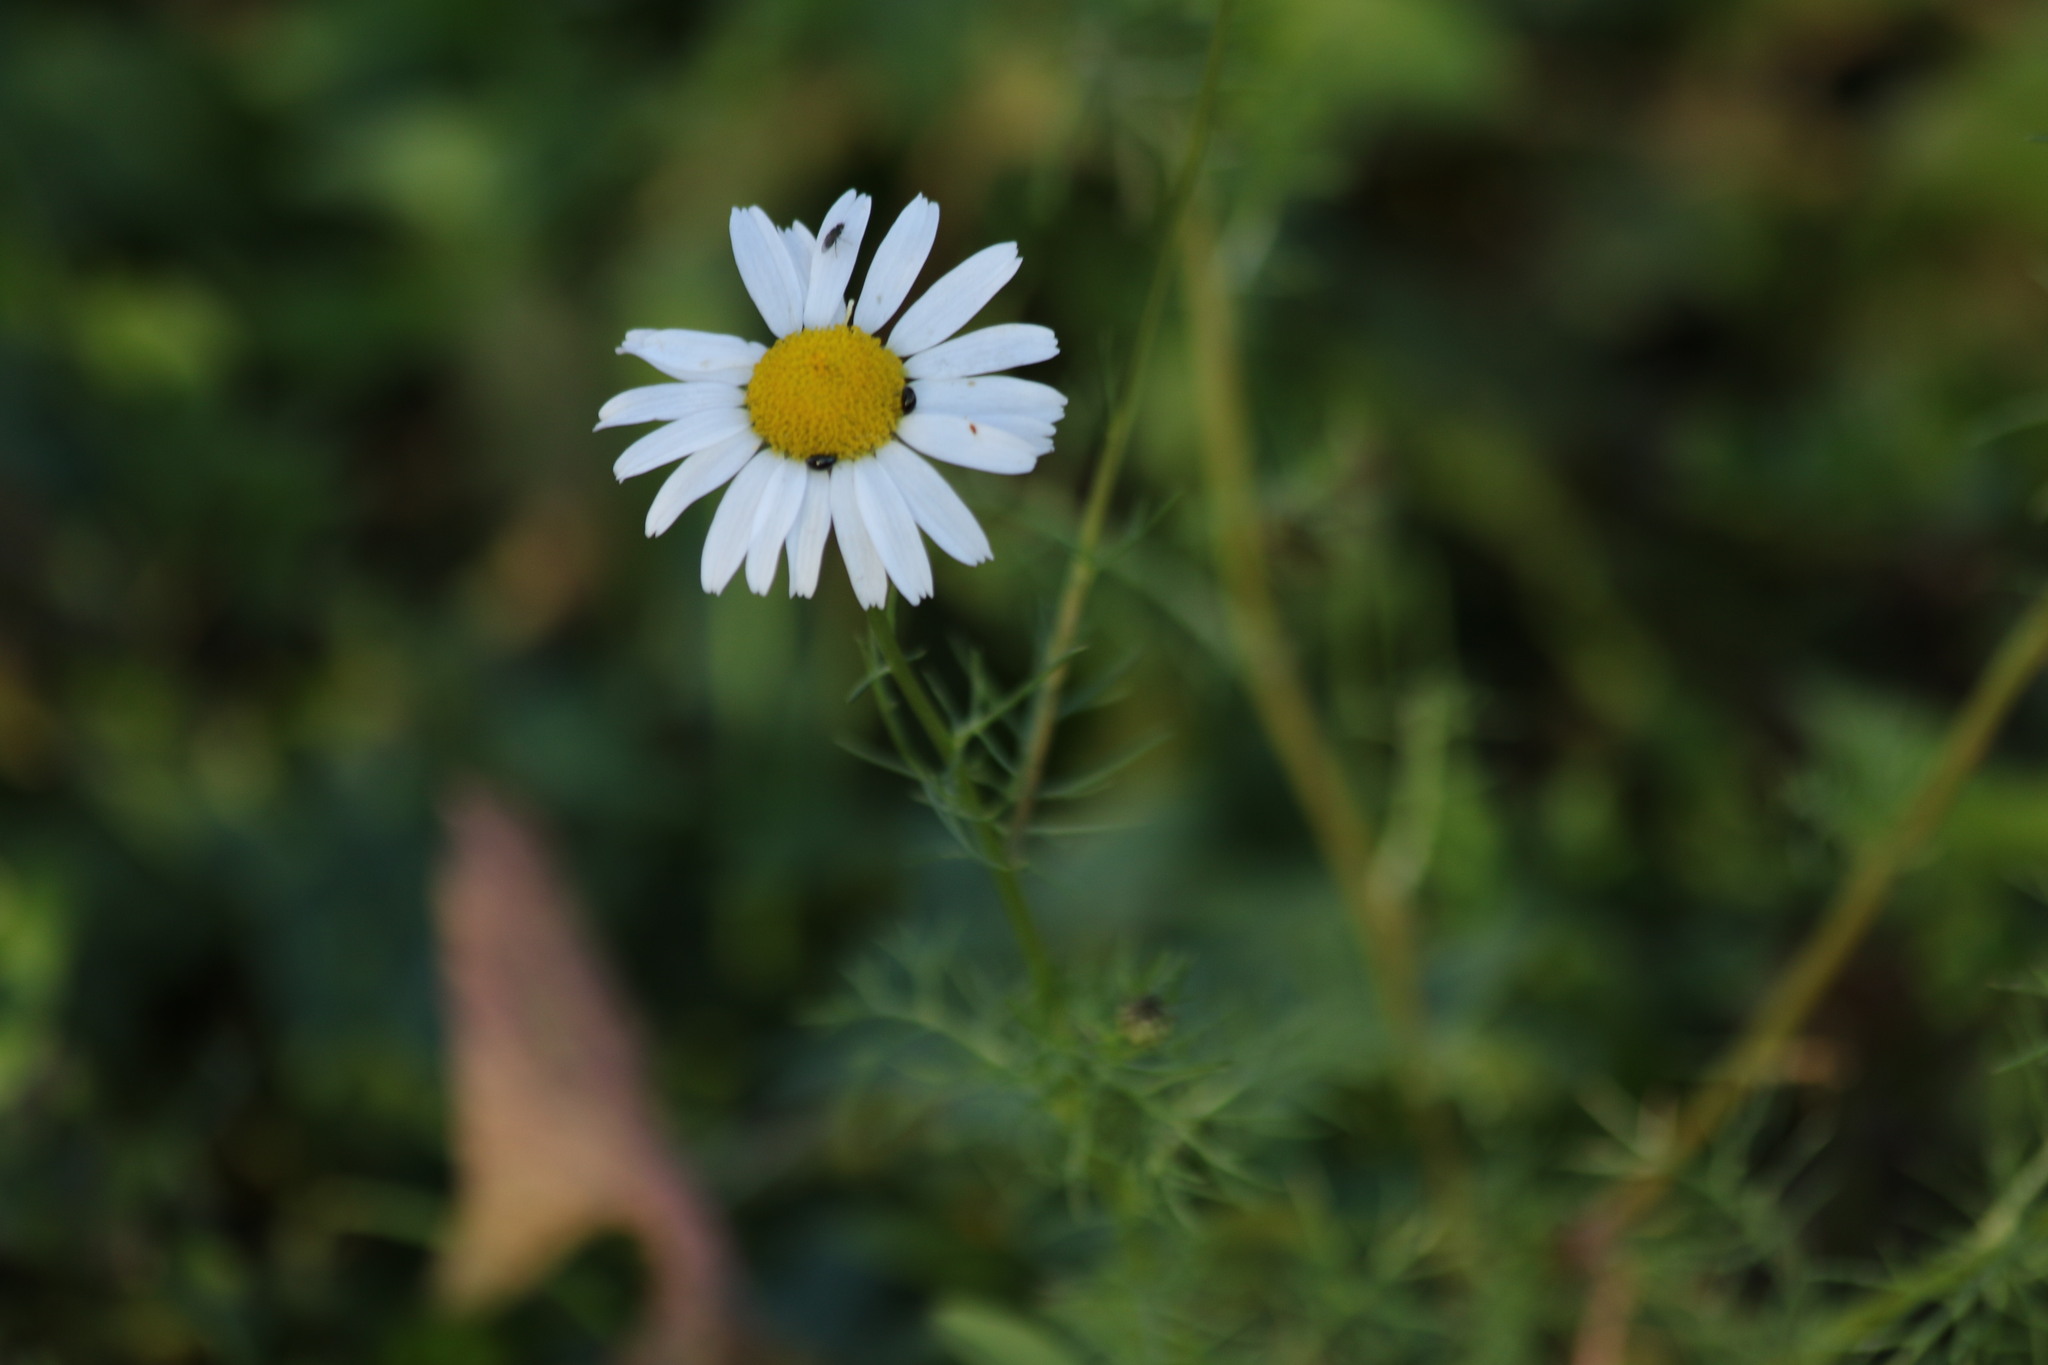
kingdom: Plantae
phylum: Tracheophyta
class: Magnoliopsida
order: Asterales
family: Asteraceae
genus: Tripleurospermum
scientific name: Tripleurospermum inodorum
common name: Scentless mayweed
